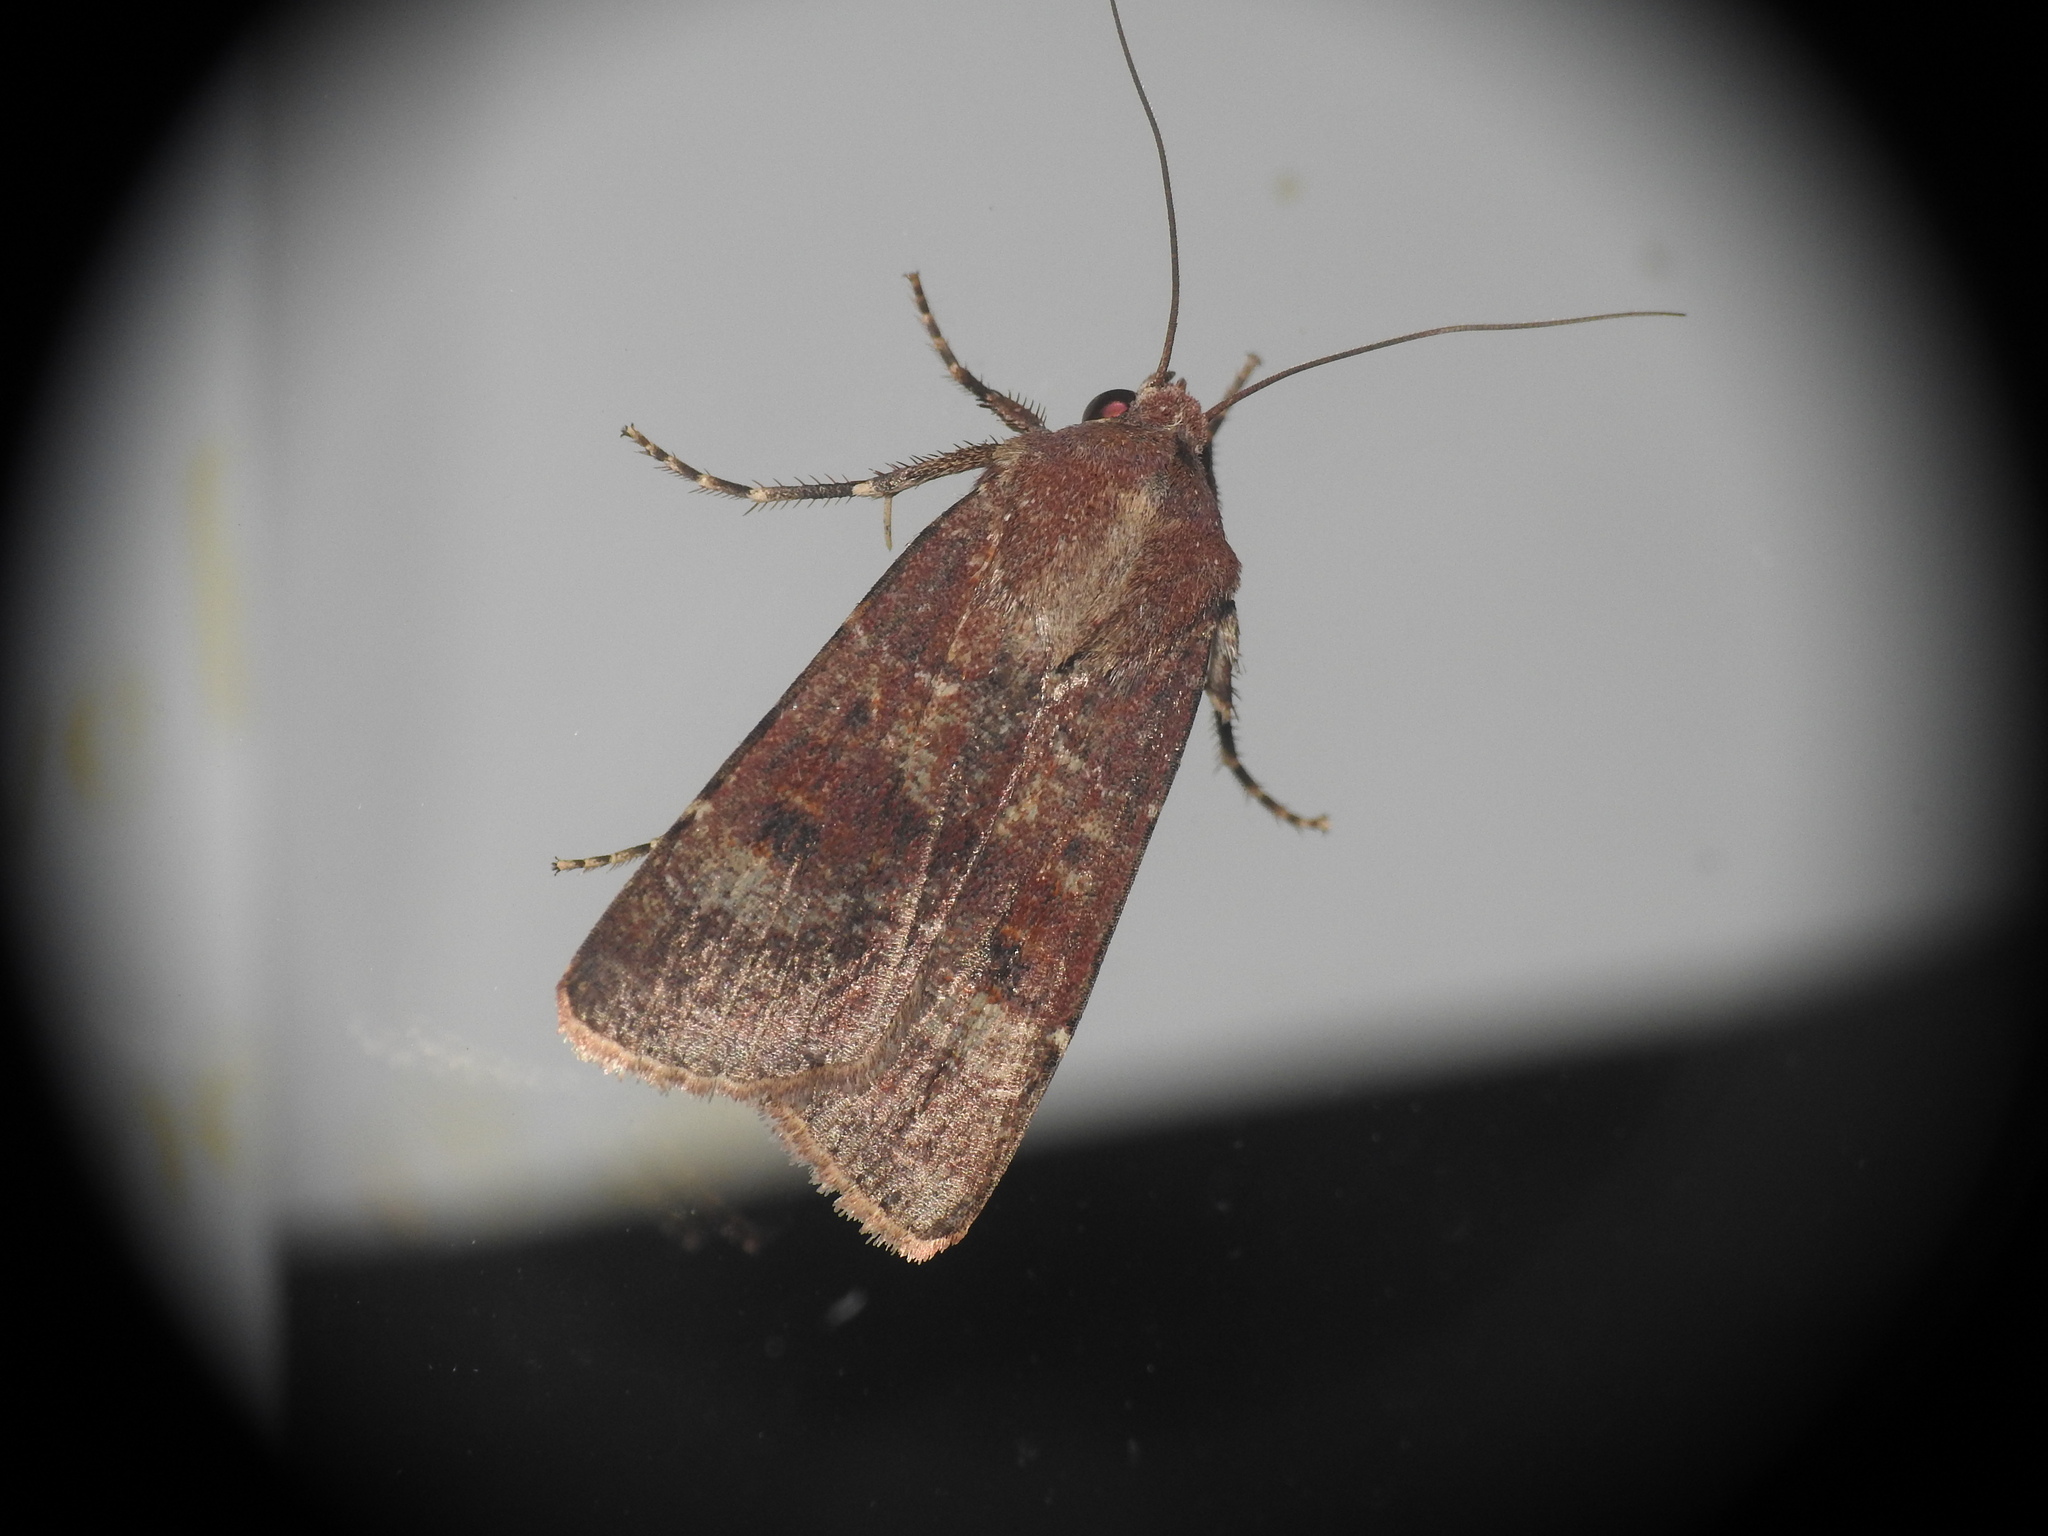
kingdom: Animalia
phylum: Arthropoda
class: Insecta
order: Lepidoptera
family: Noctuidae
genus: Agrotis
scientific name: Agrotis trux
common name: Crescent dart
